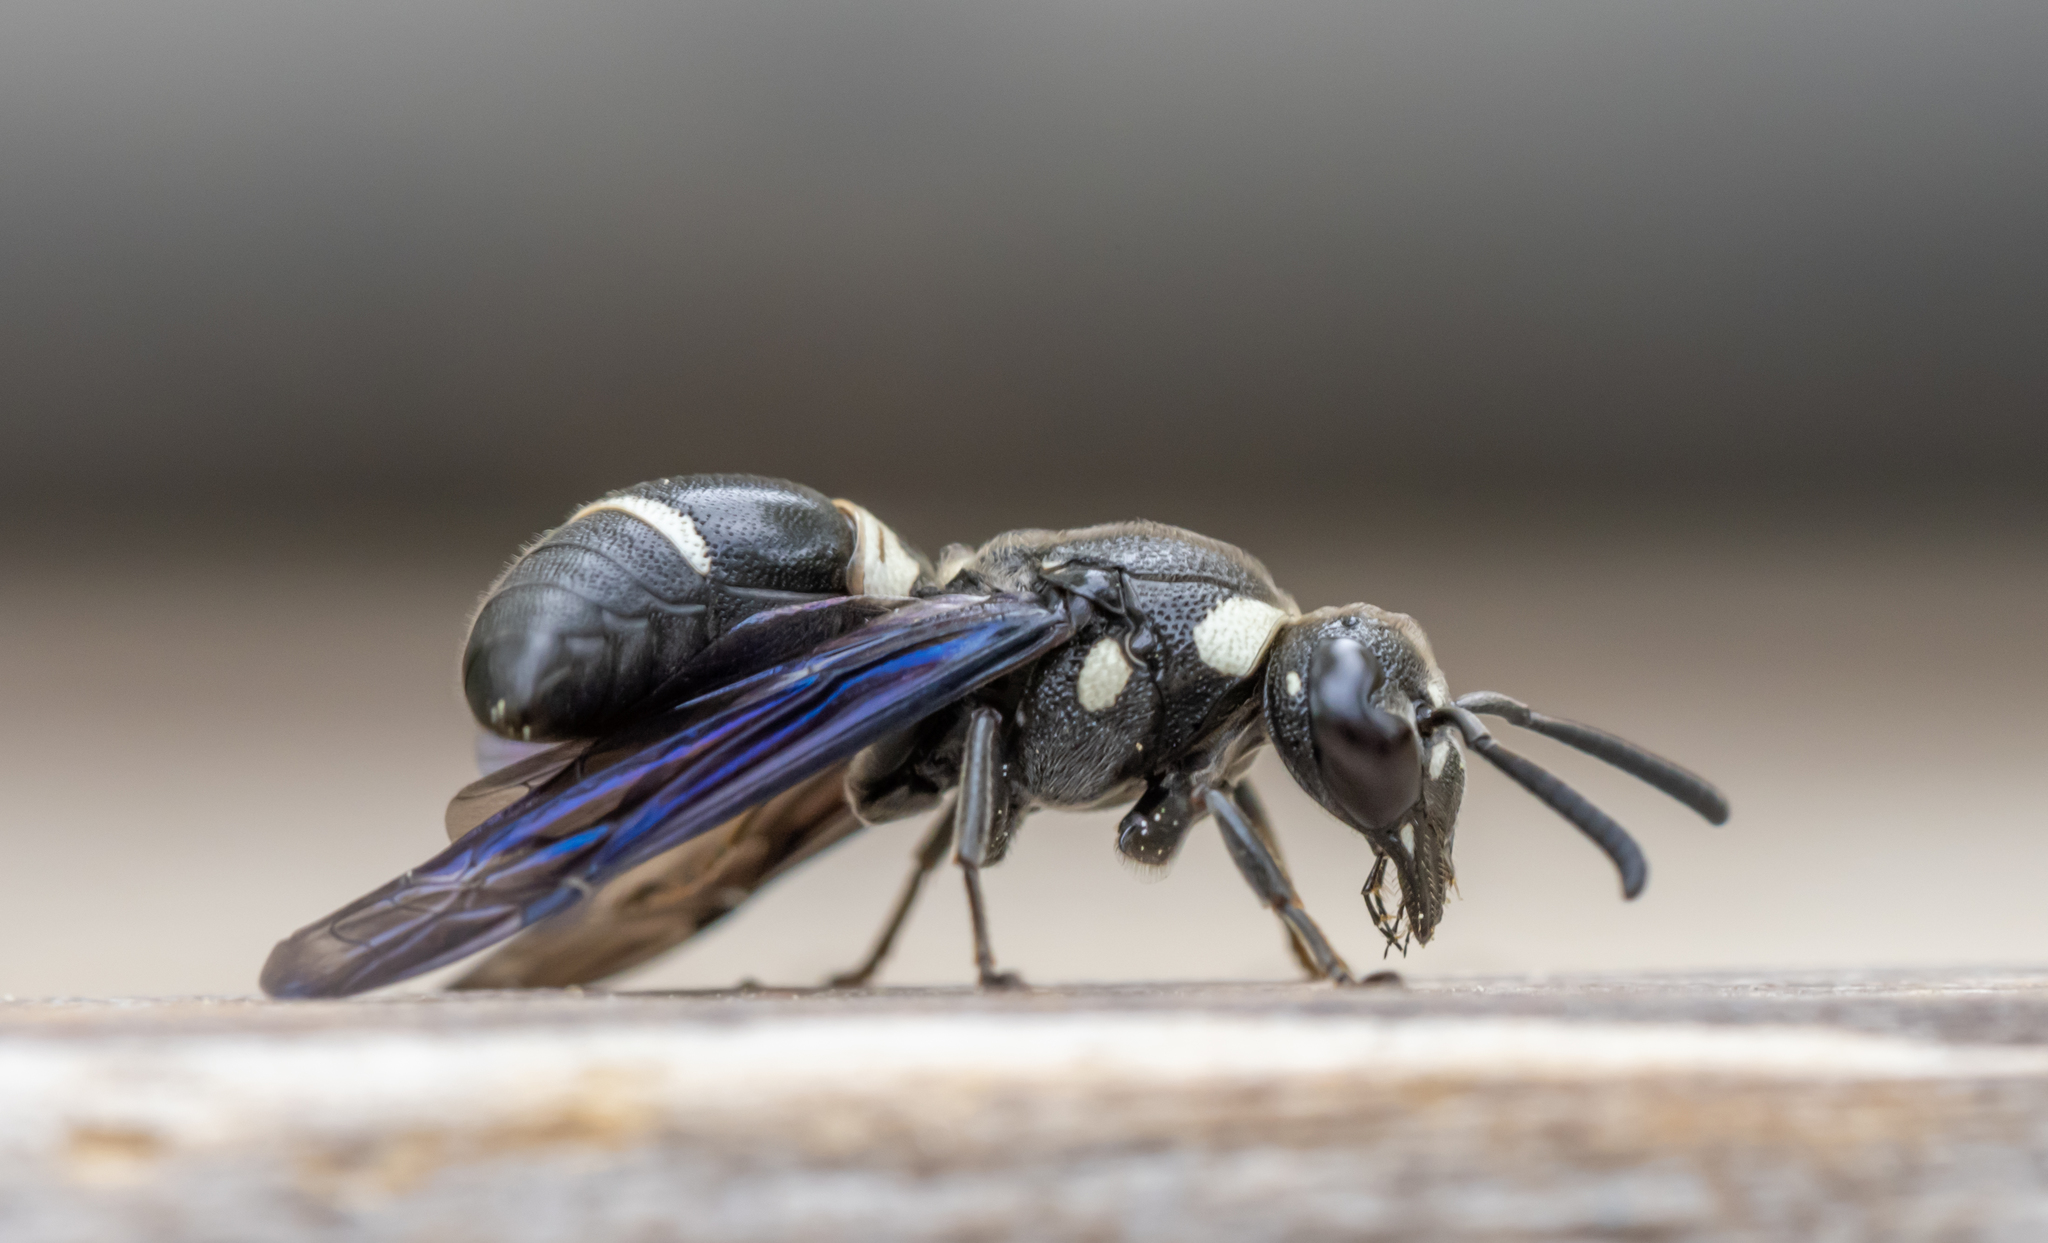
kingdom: Animalia
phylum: Arthropoda
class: Insecta
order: Hymenoptera
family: Eumenidae
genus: Euodynerus
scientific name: Euodynerus megaera
